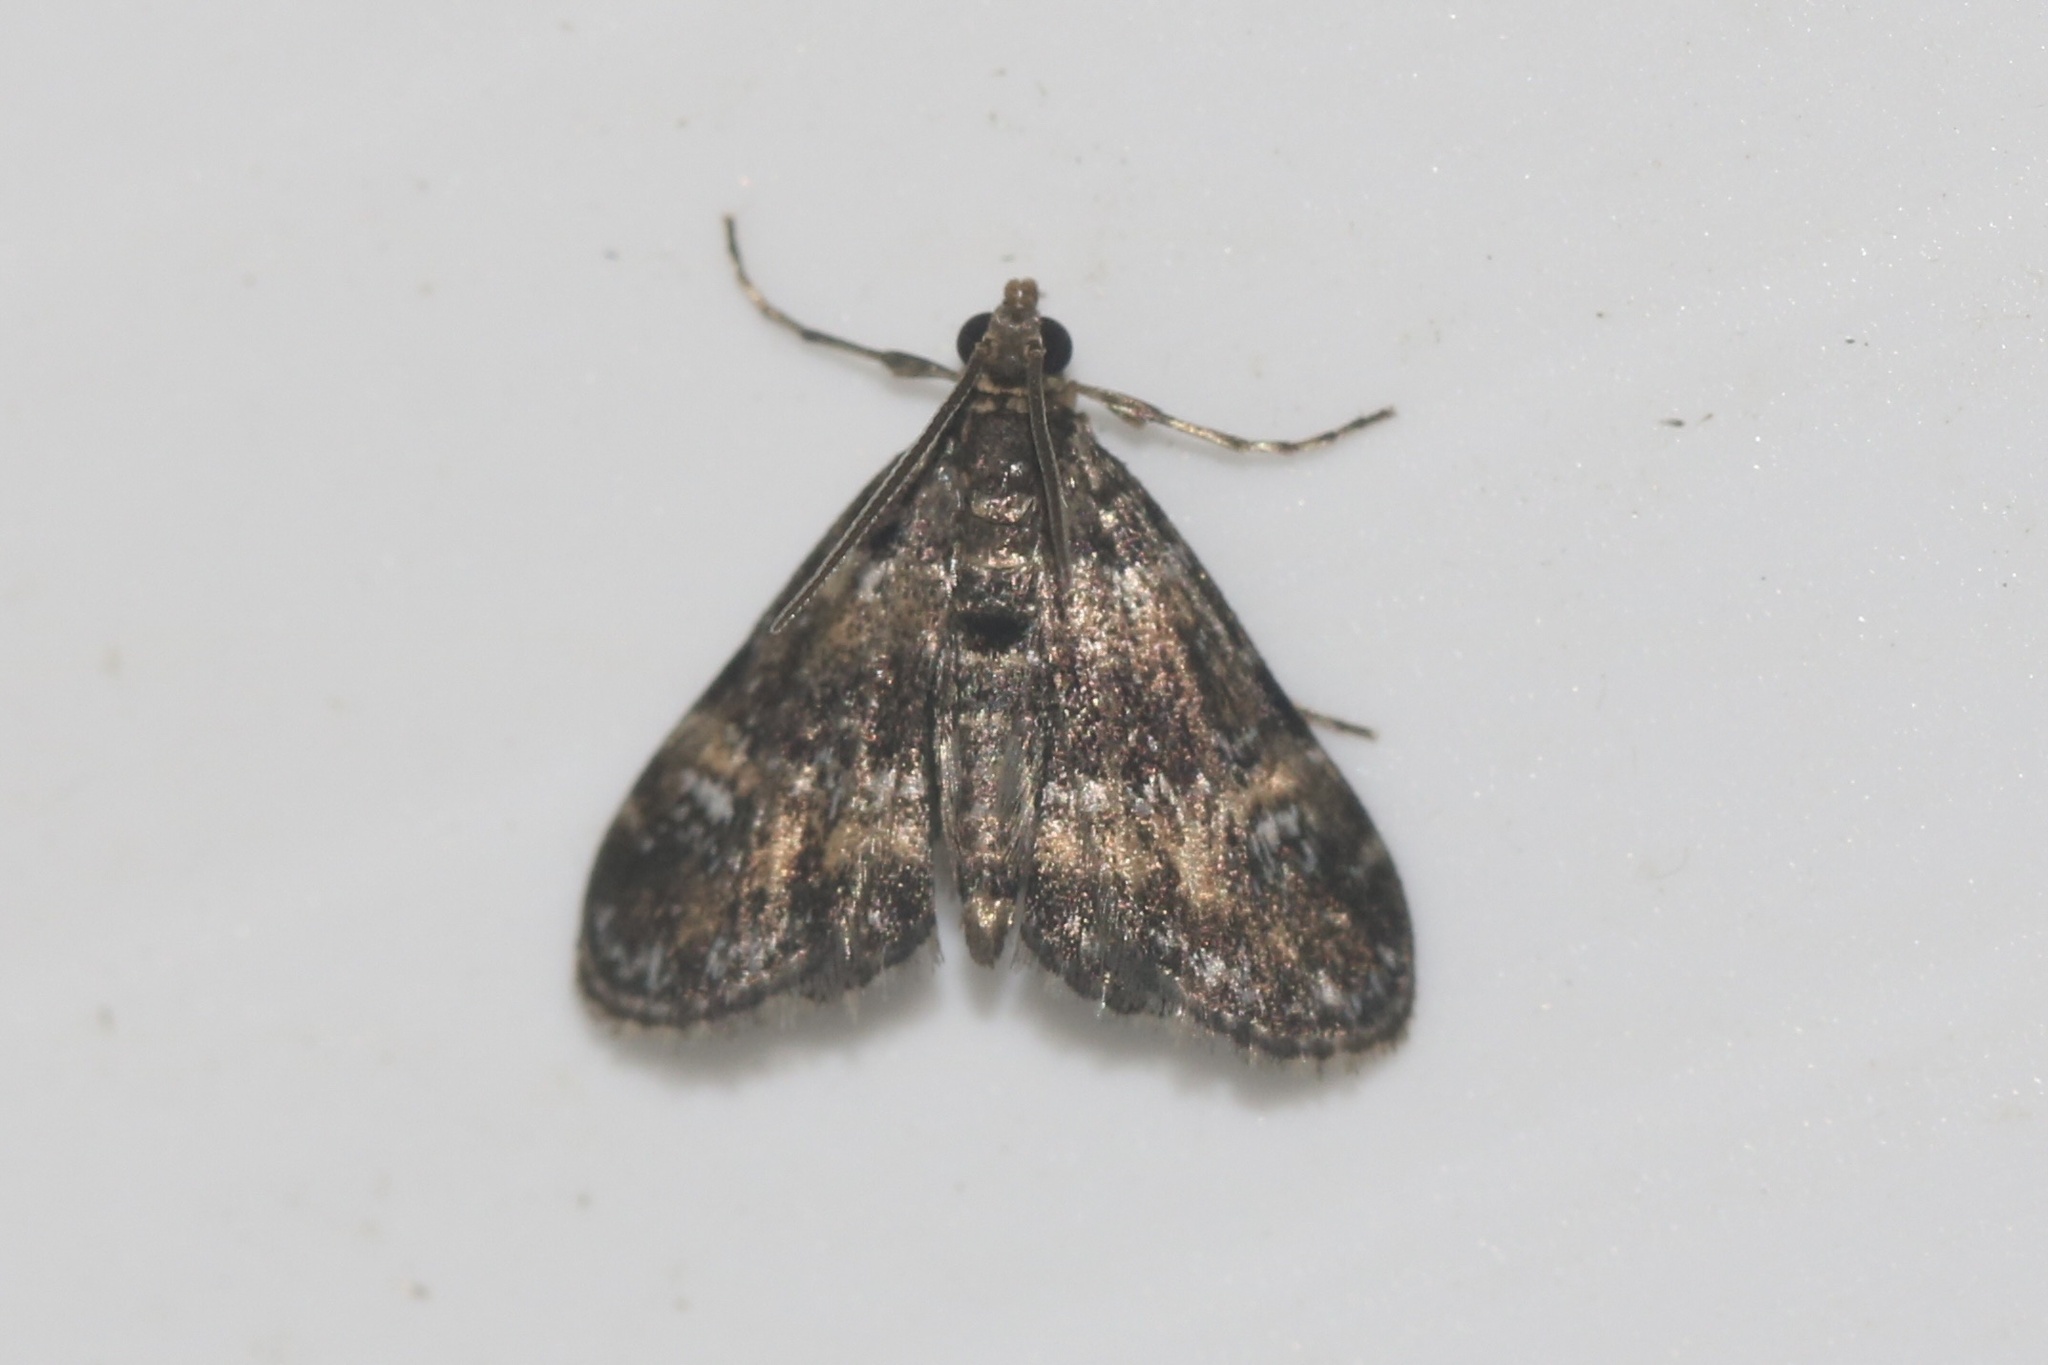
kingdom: Animalia
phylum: Arthropoda
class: Insecta
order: Lepidoptera
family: Crambidae
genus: Elophila
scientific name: Elophila obliteralis
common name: Waterlily leafcutter moth
